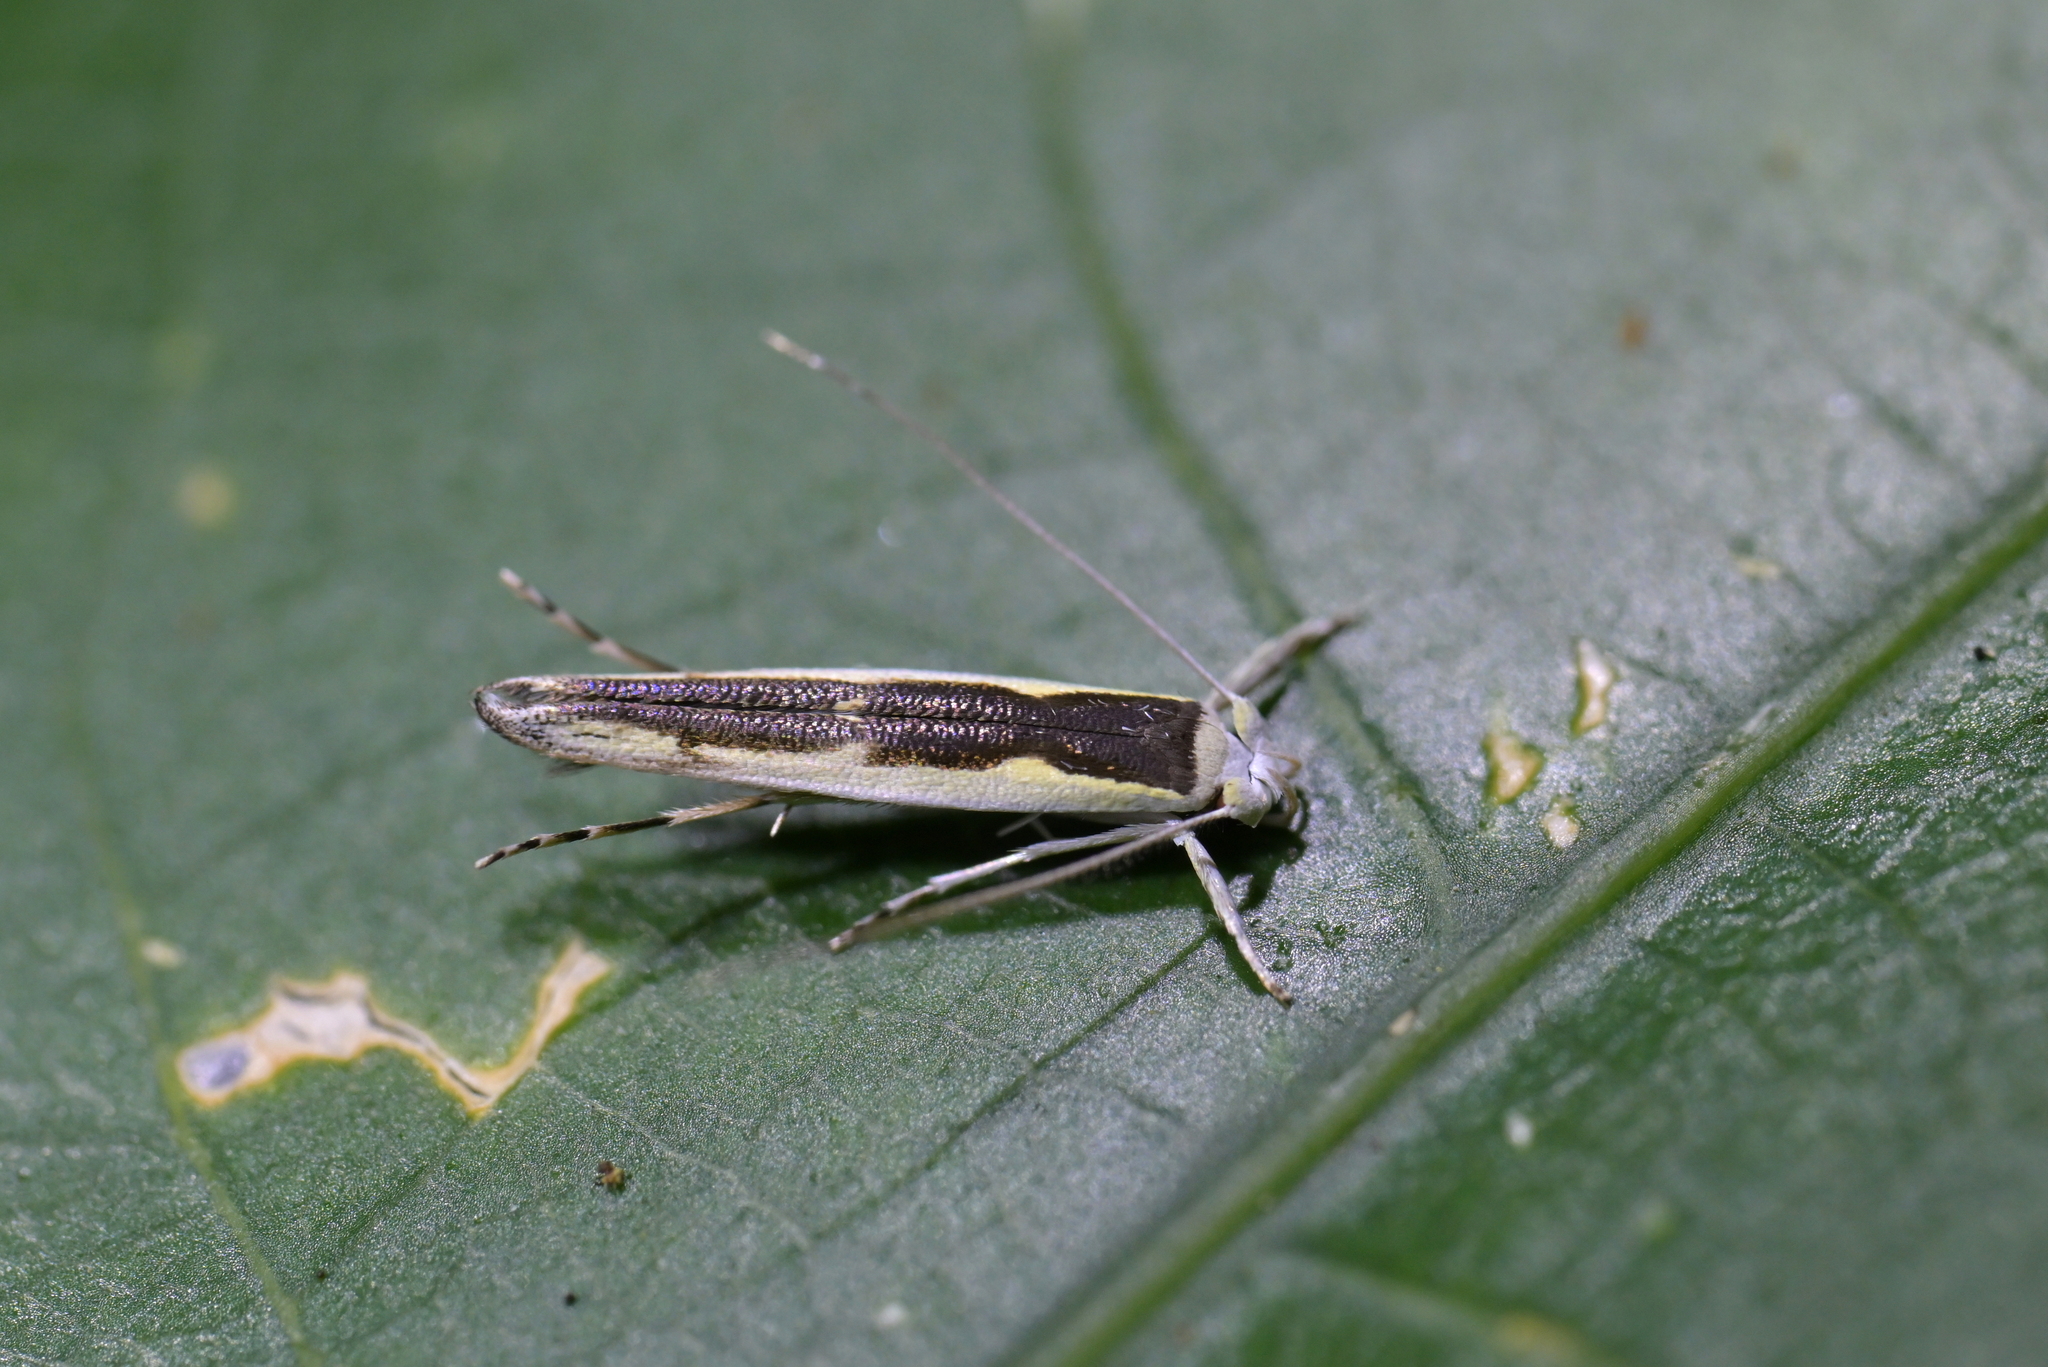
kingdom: Animalia
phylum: Arthropoda
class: Insecta
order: Lepidoptera
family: Roeslerstammiidae
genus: Vanicela
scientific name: Vanicela disjunctella
